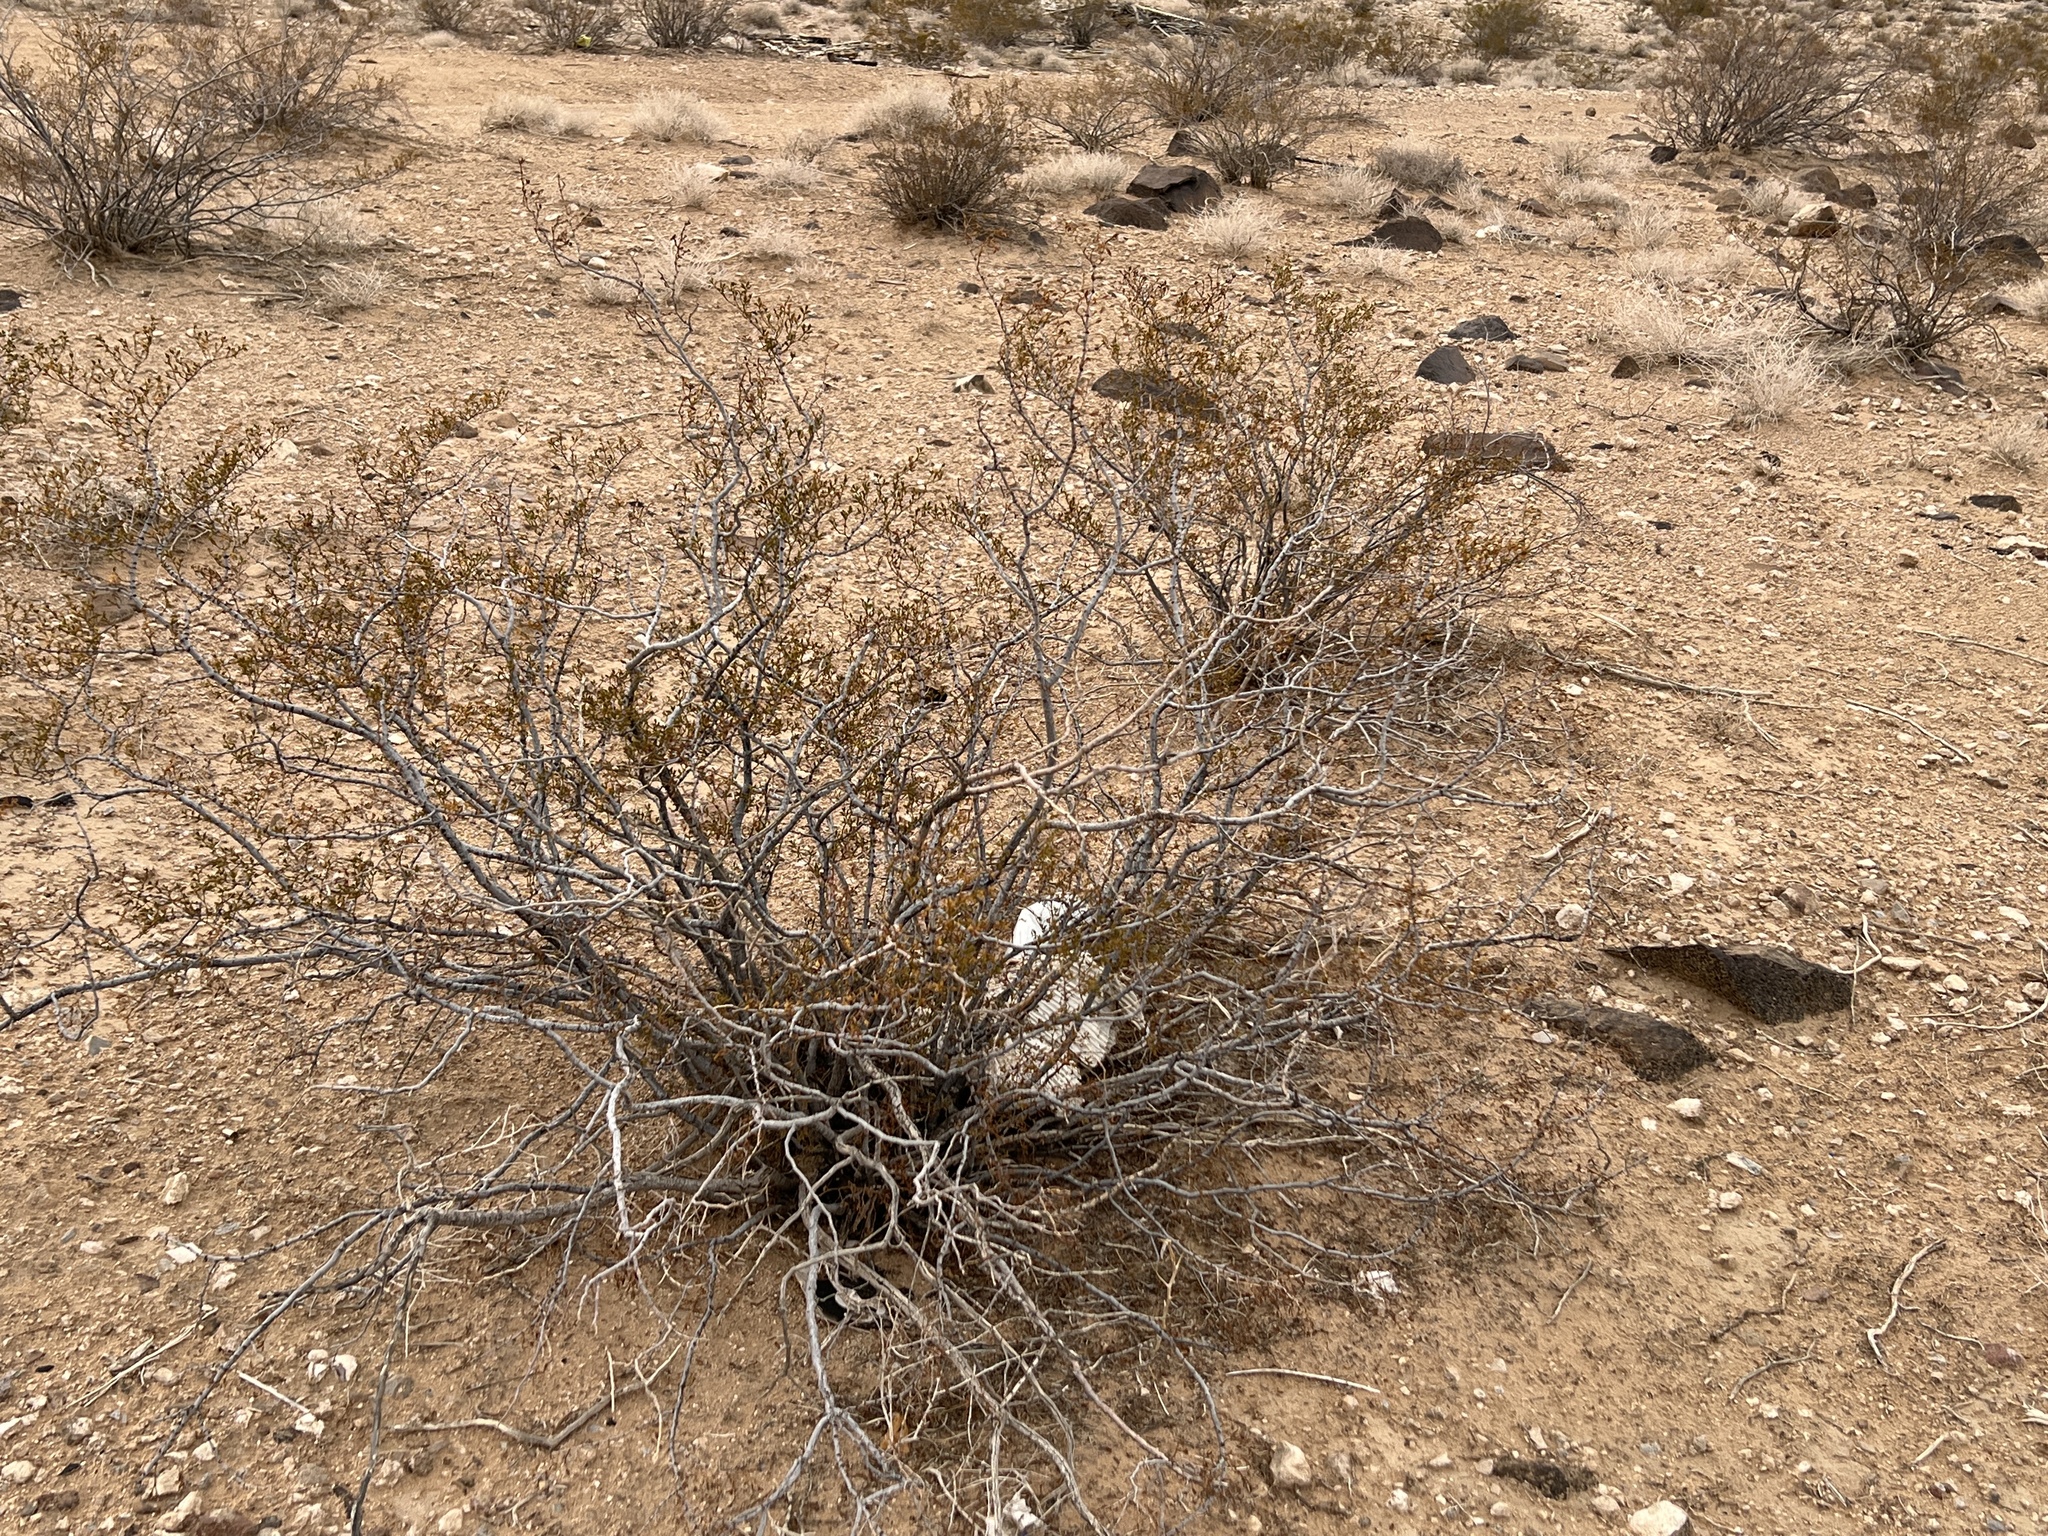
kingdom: Plantae
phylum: Tracheophyta
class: Magnoliopsida
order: Zygophyllales
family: Zygophyllaceae
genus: Larrea
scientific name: Larrea tridentata
